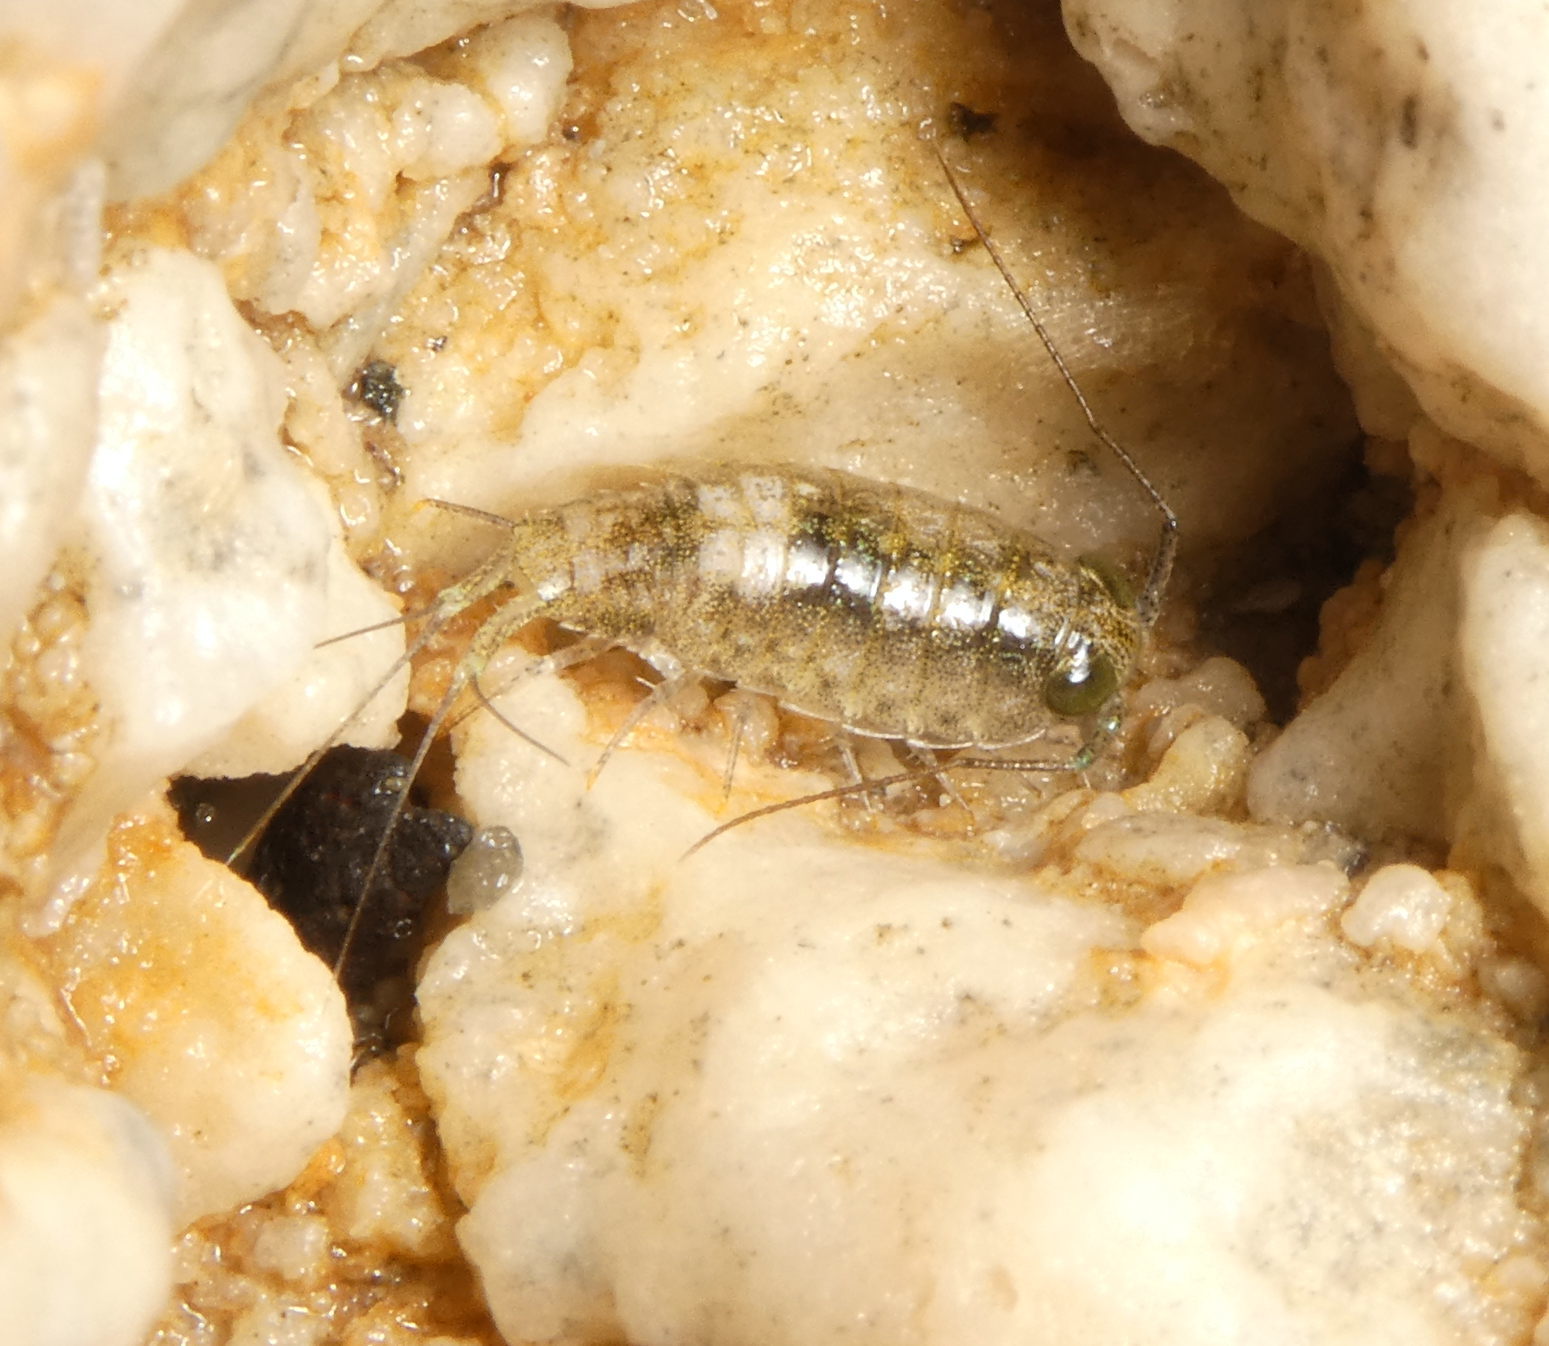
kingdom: Animalia
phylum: Arthropoda
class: Malacostraca
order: Isopoda
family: Ligiidae
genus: Ligia
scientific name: Ligia italica
